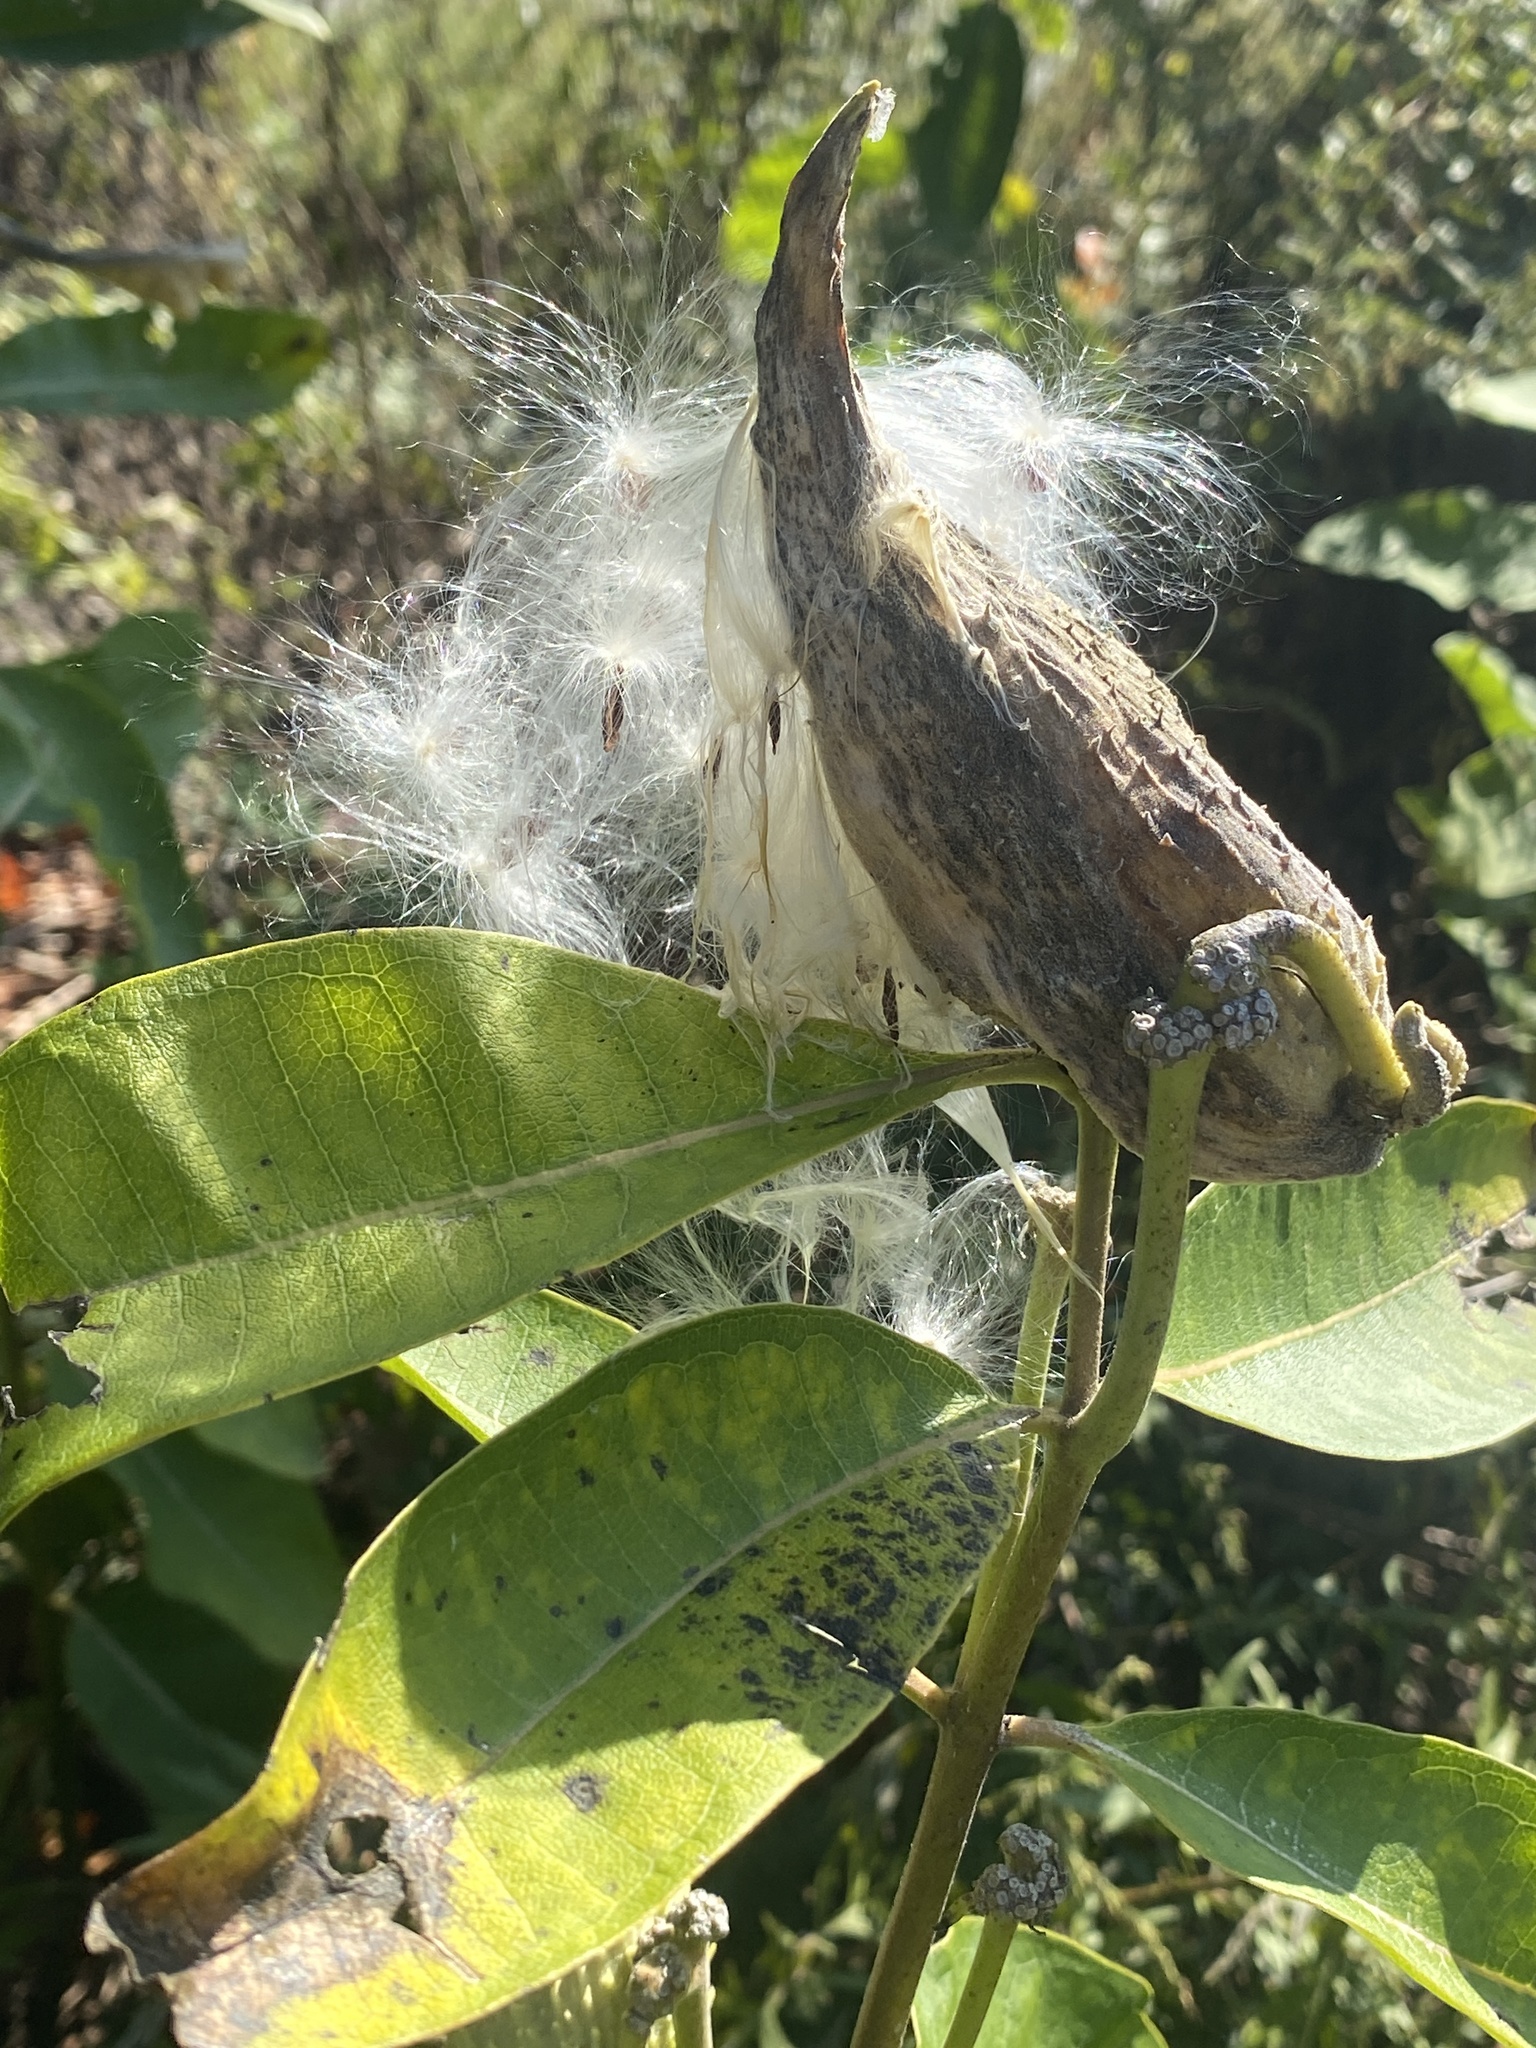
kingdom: Plantae
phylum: Tracheophyta
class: Magnoliopsida
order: Gentianales
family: Apocynaceae
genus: Asclepias
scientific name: Asclepias syriaca
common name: Common milkweed
